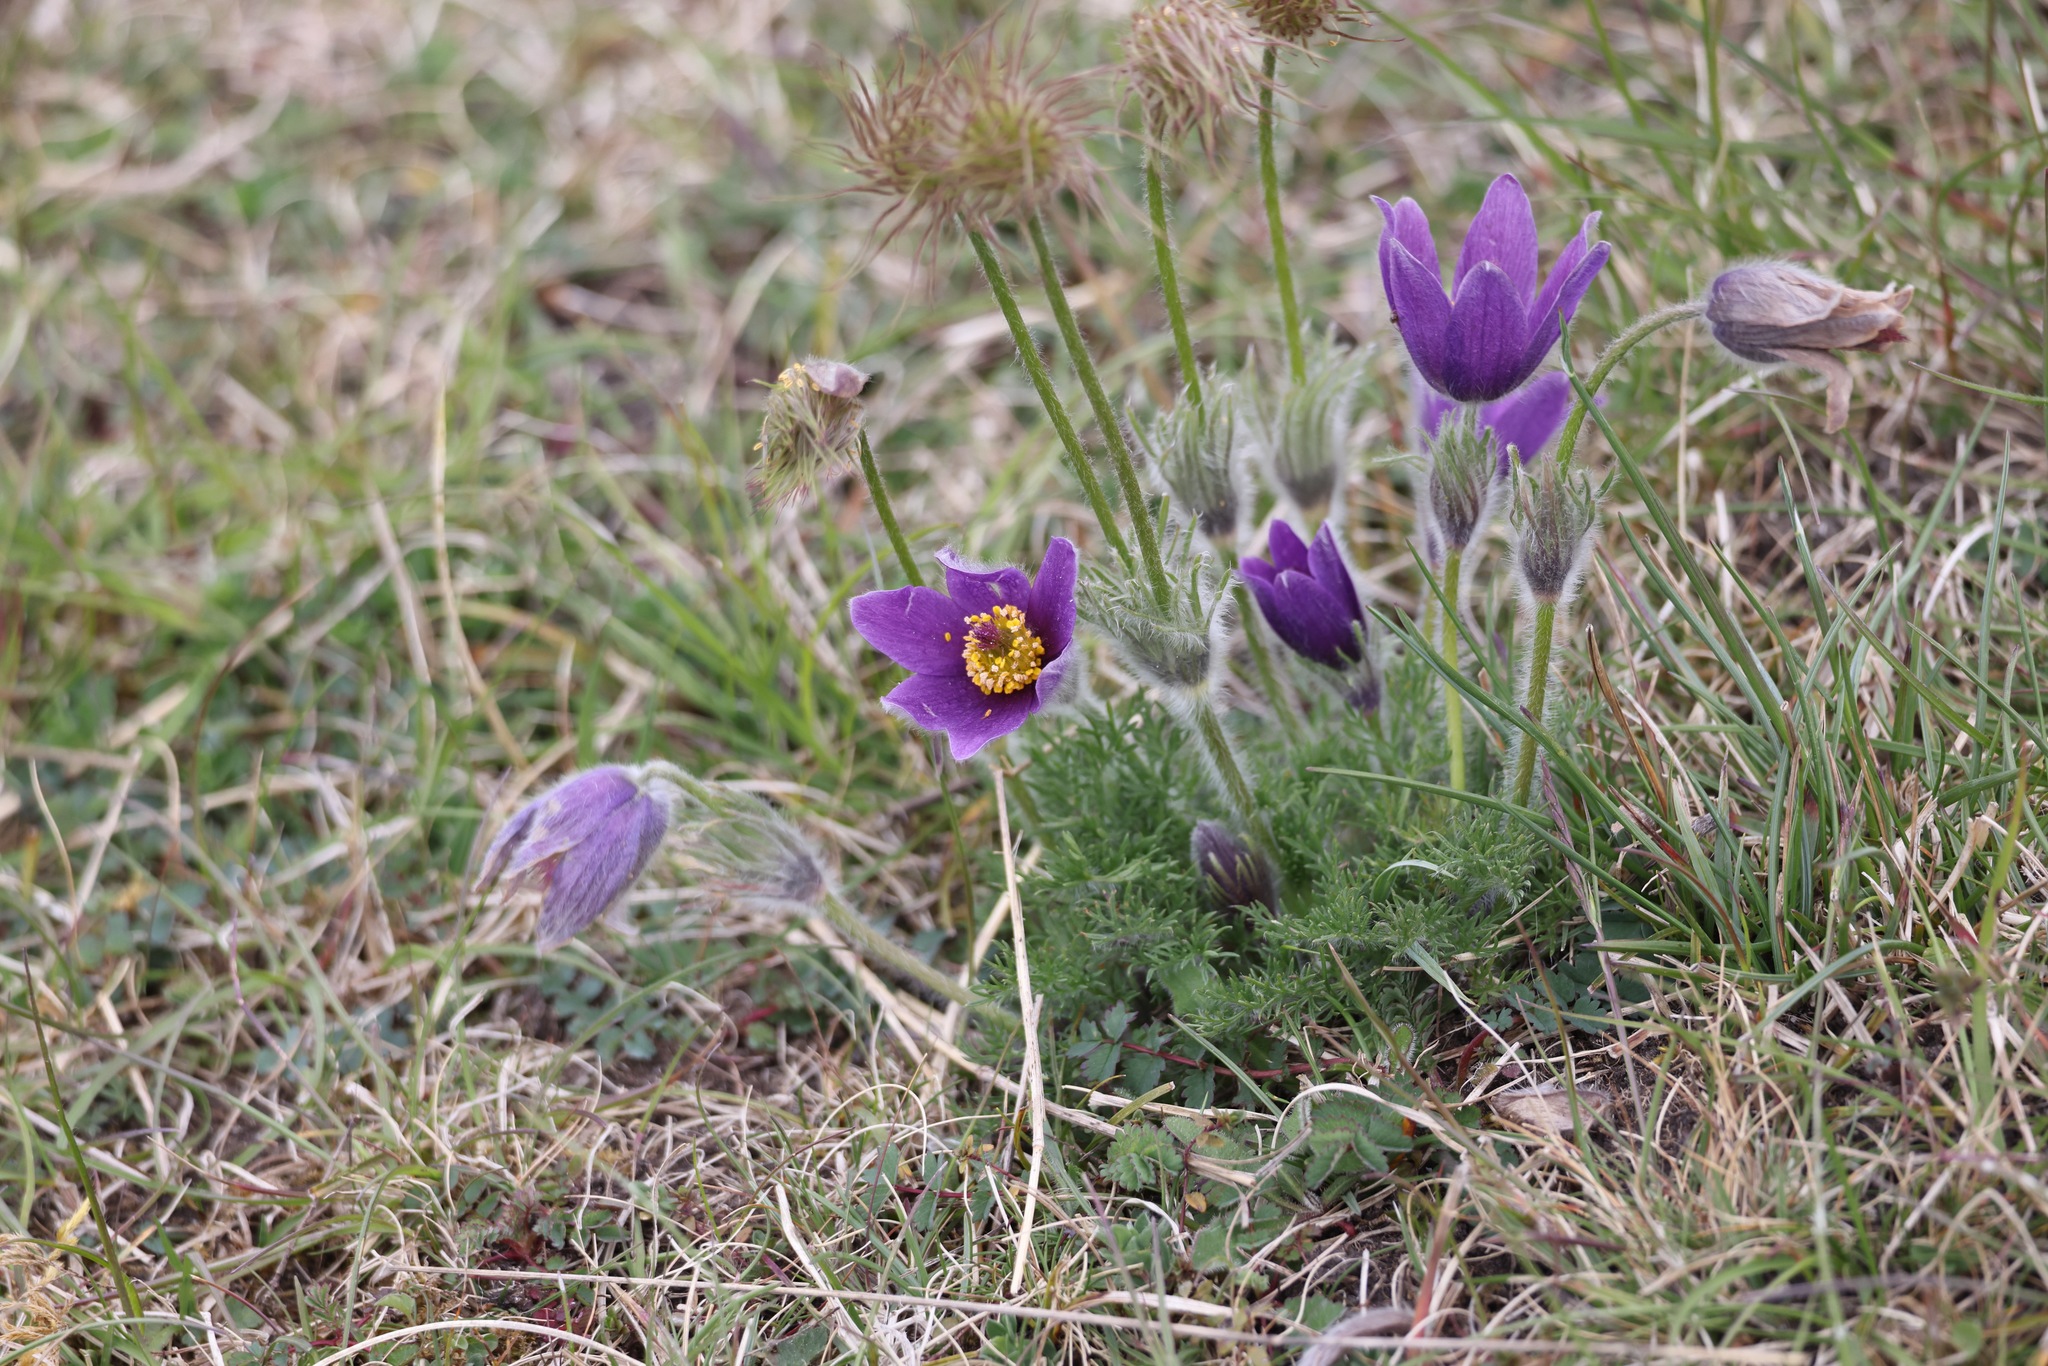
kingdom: Plantae
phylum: Tracheophyta
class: Magnoliopsida
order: Ranunculales
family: Ranunculaceae
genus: Pulsatilla
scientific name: Pulsatilla vulgaris
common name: Pasqueflower
